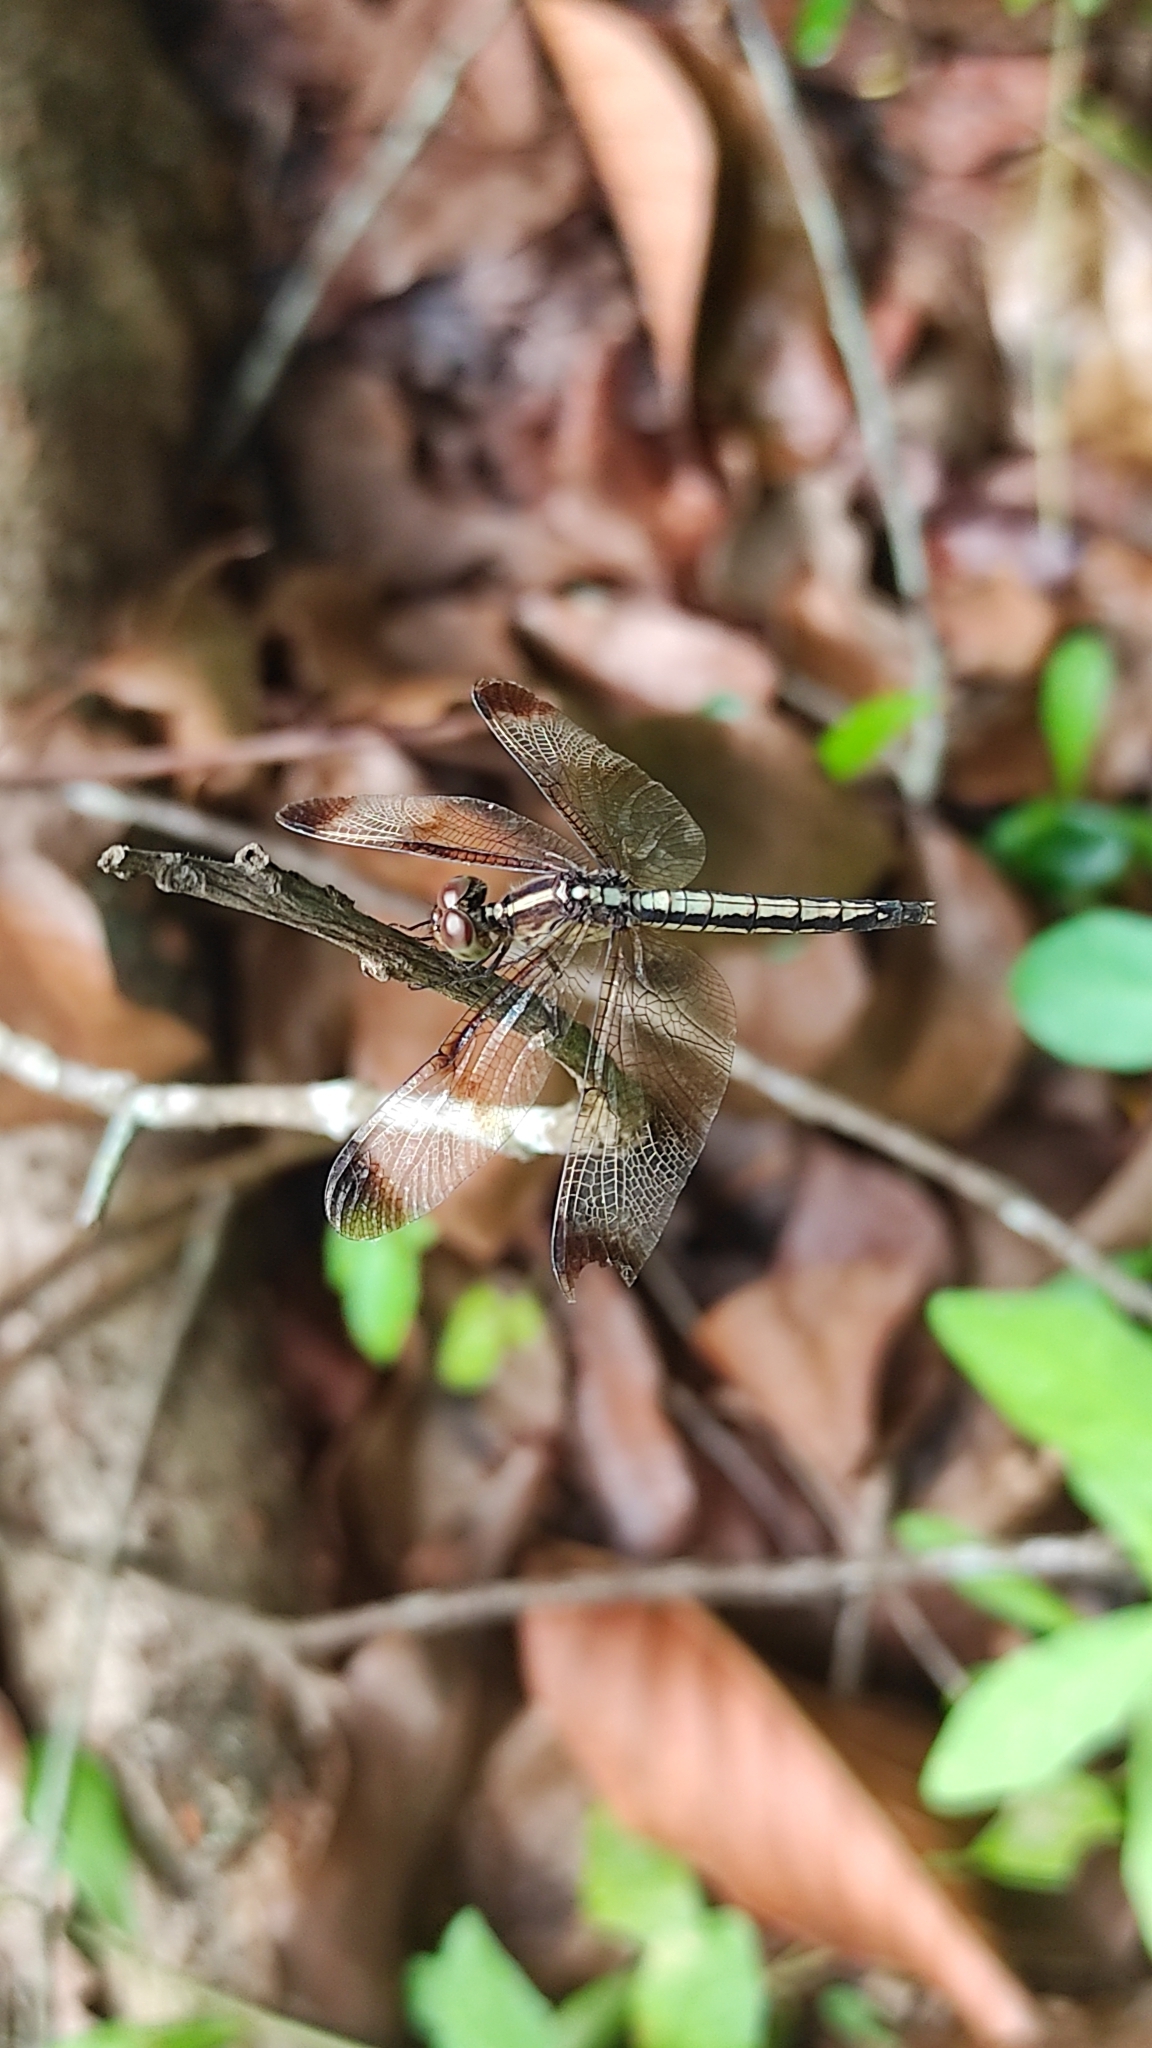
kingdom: Animalia
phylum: Arthropoda
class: Insecta
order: Odonata
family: Libellulidae
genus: Neurothemis
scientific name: Neurothemis tullia
